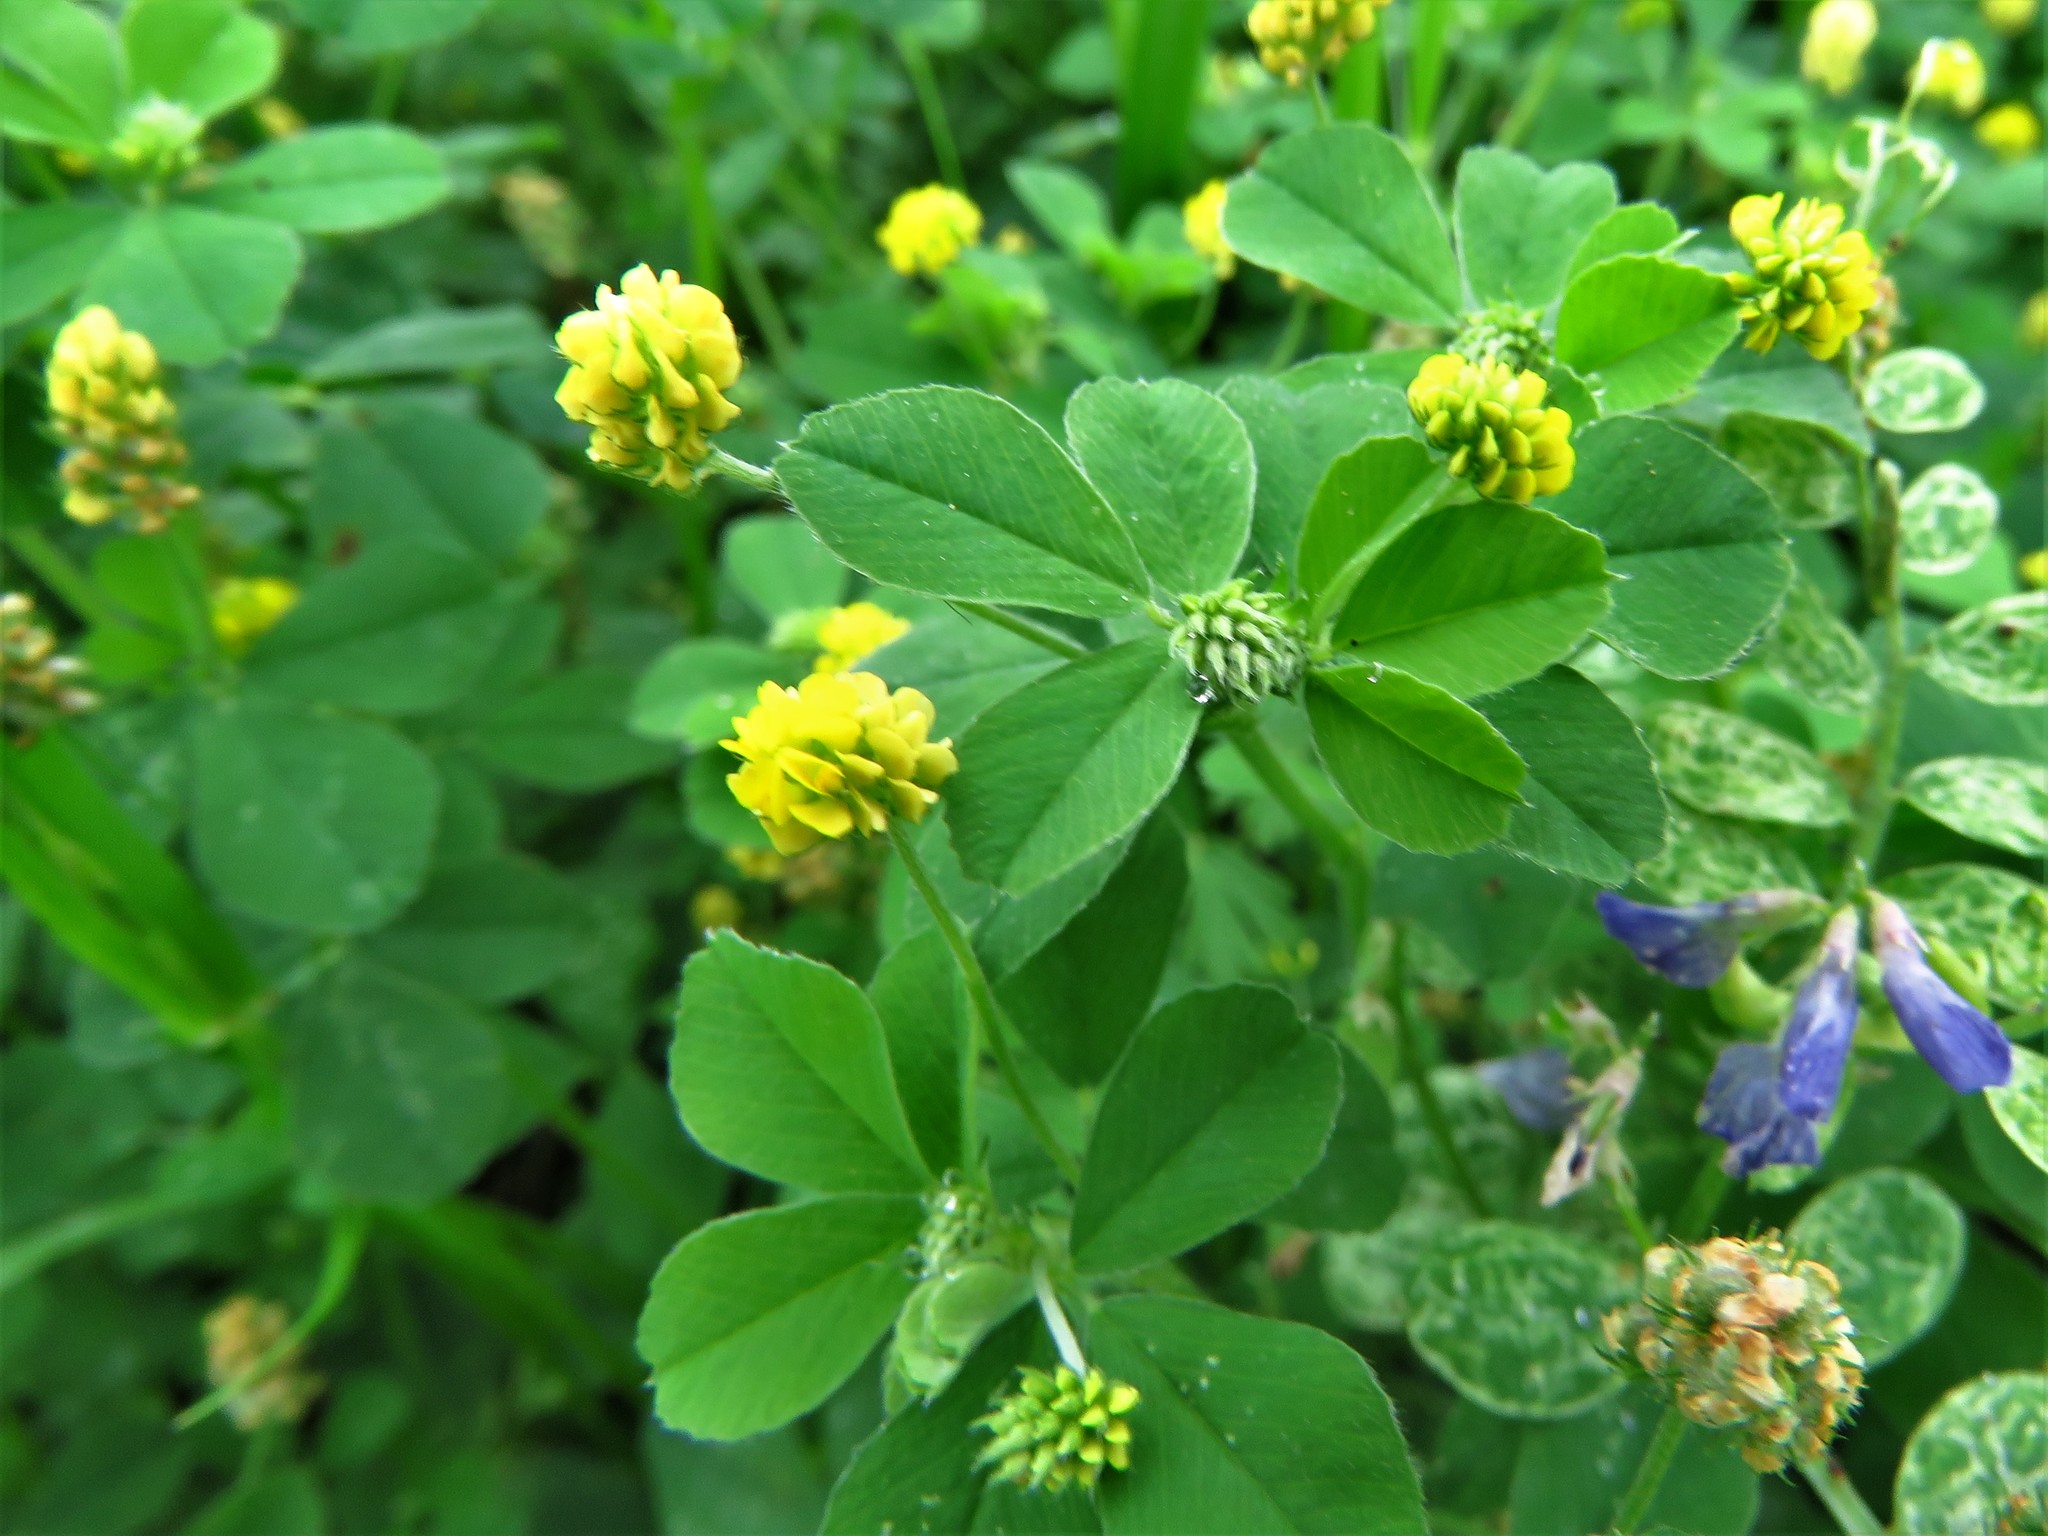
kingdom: Plantae
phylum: Tracheophyta
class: Magnoliopsida
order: Fabales
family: Fabaceae
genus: Medicago
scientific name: Medicago lupulina
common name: Black medick
